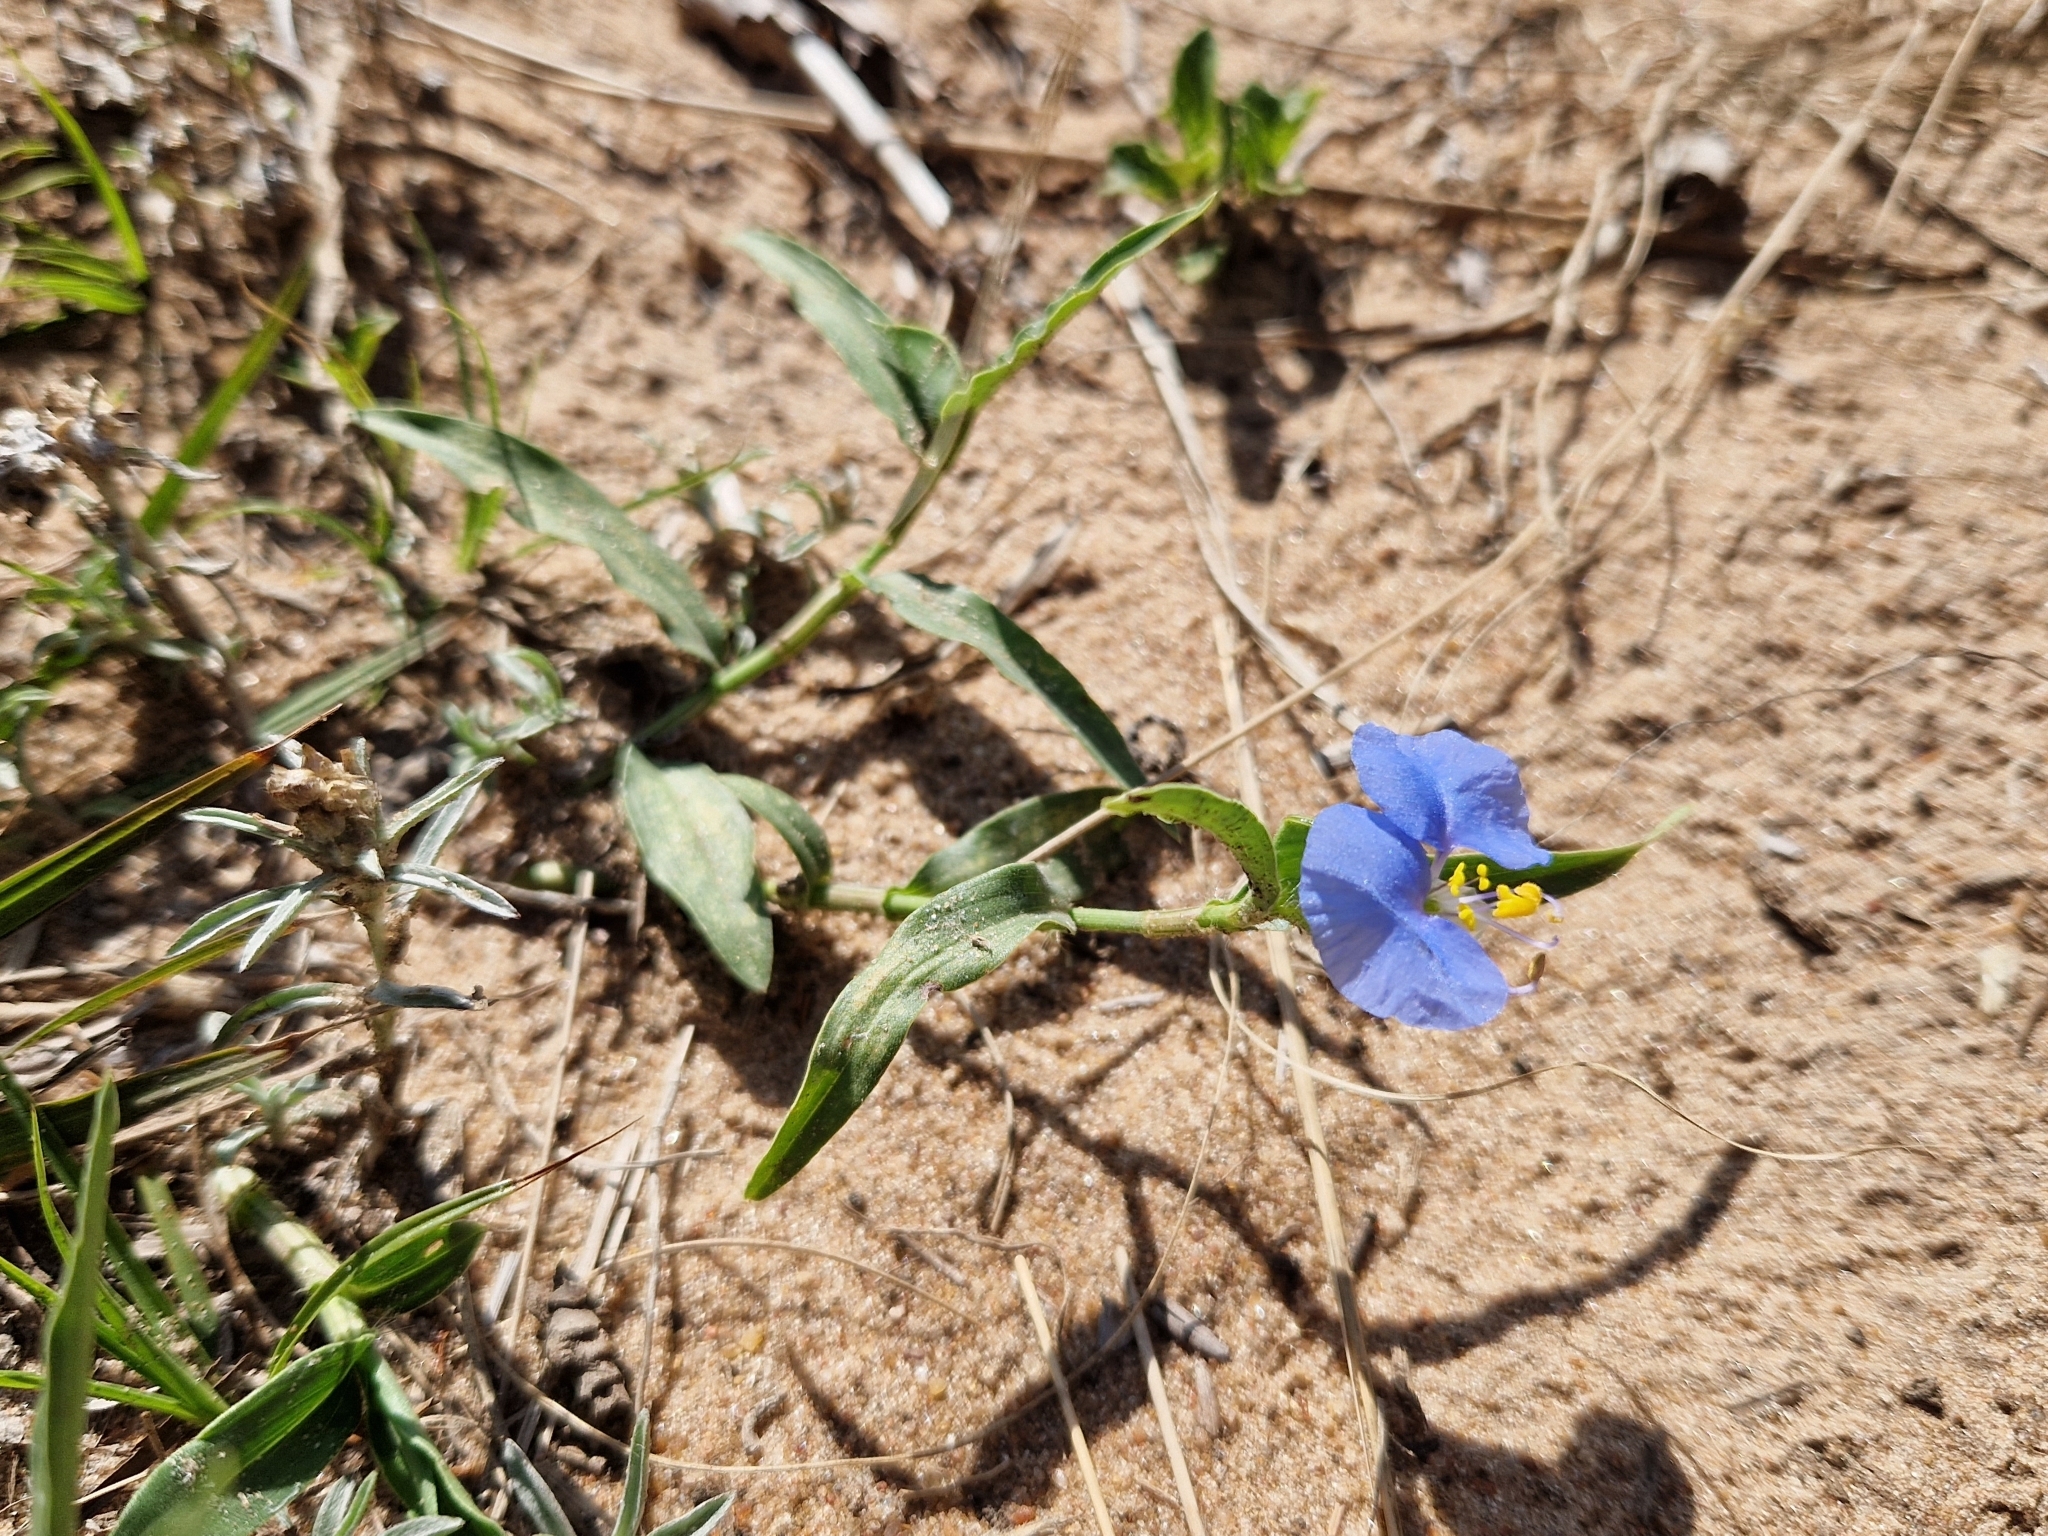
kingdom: Plantae
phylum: Tracheophyta
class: Liliopsida
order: Commelinales
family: Commelinaceae
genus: Commelina
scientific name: Commelina erecta
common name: Blousel blommetjie
